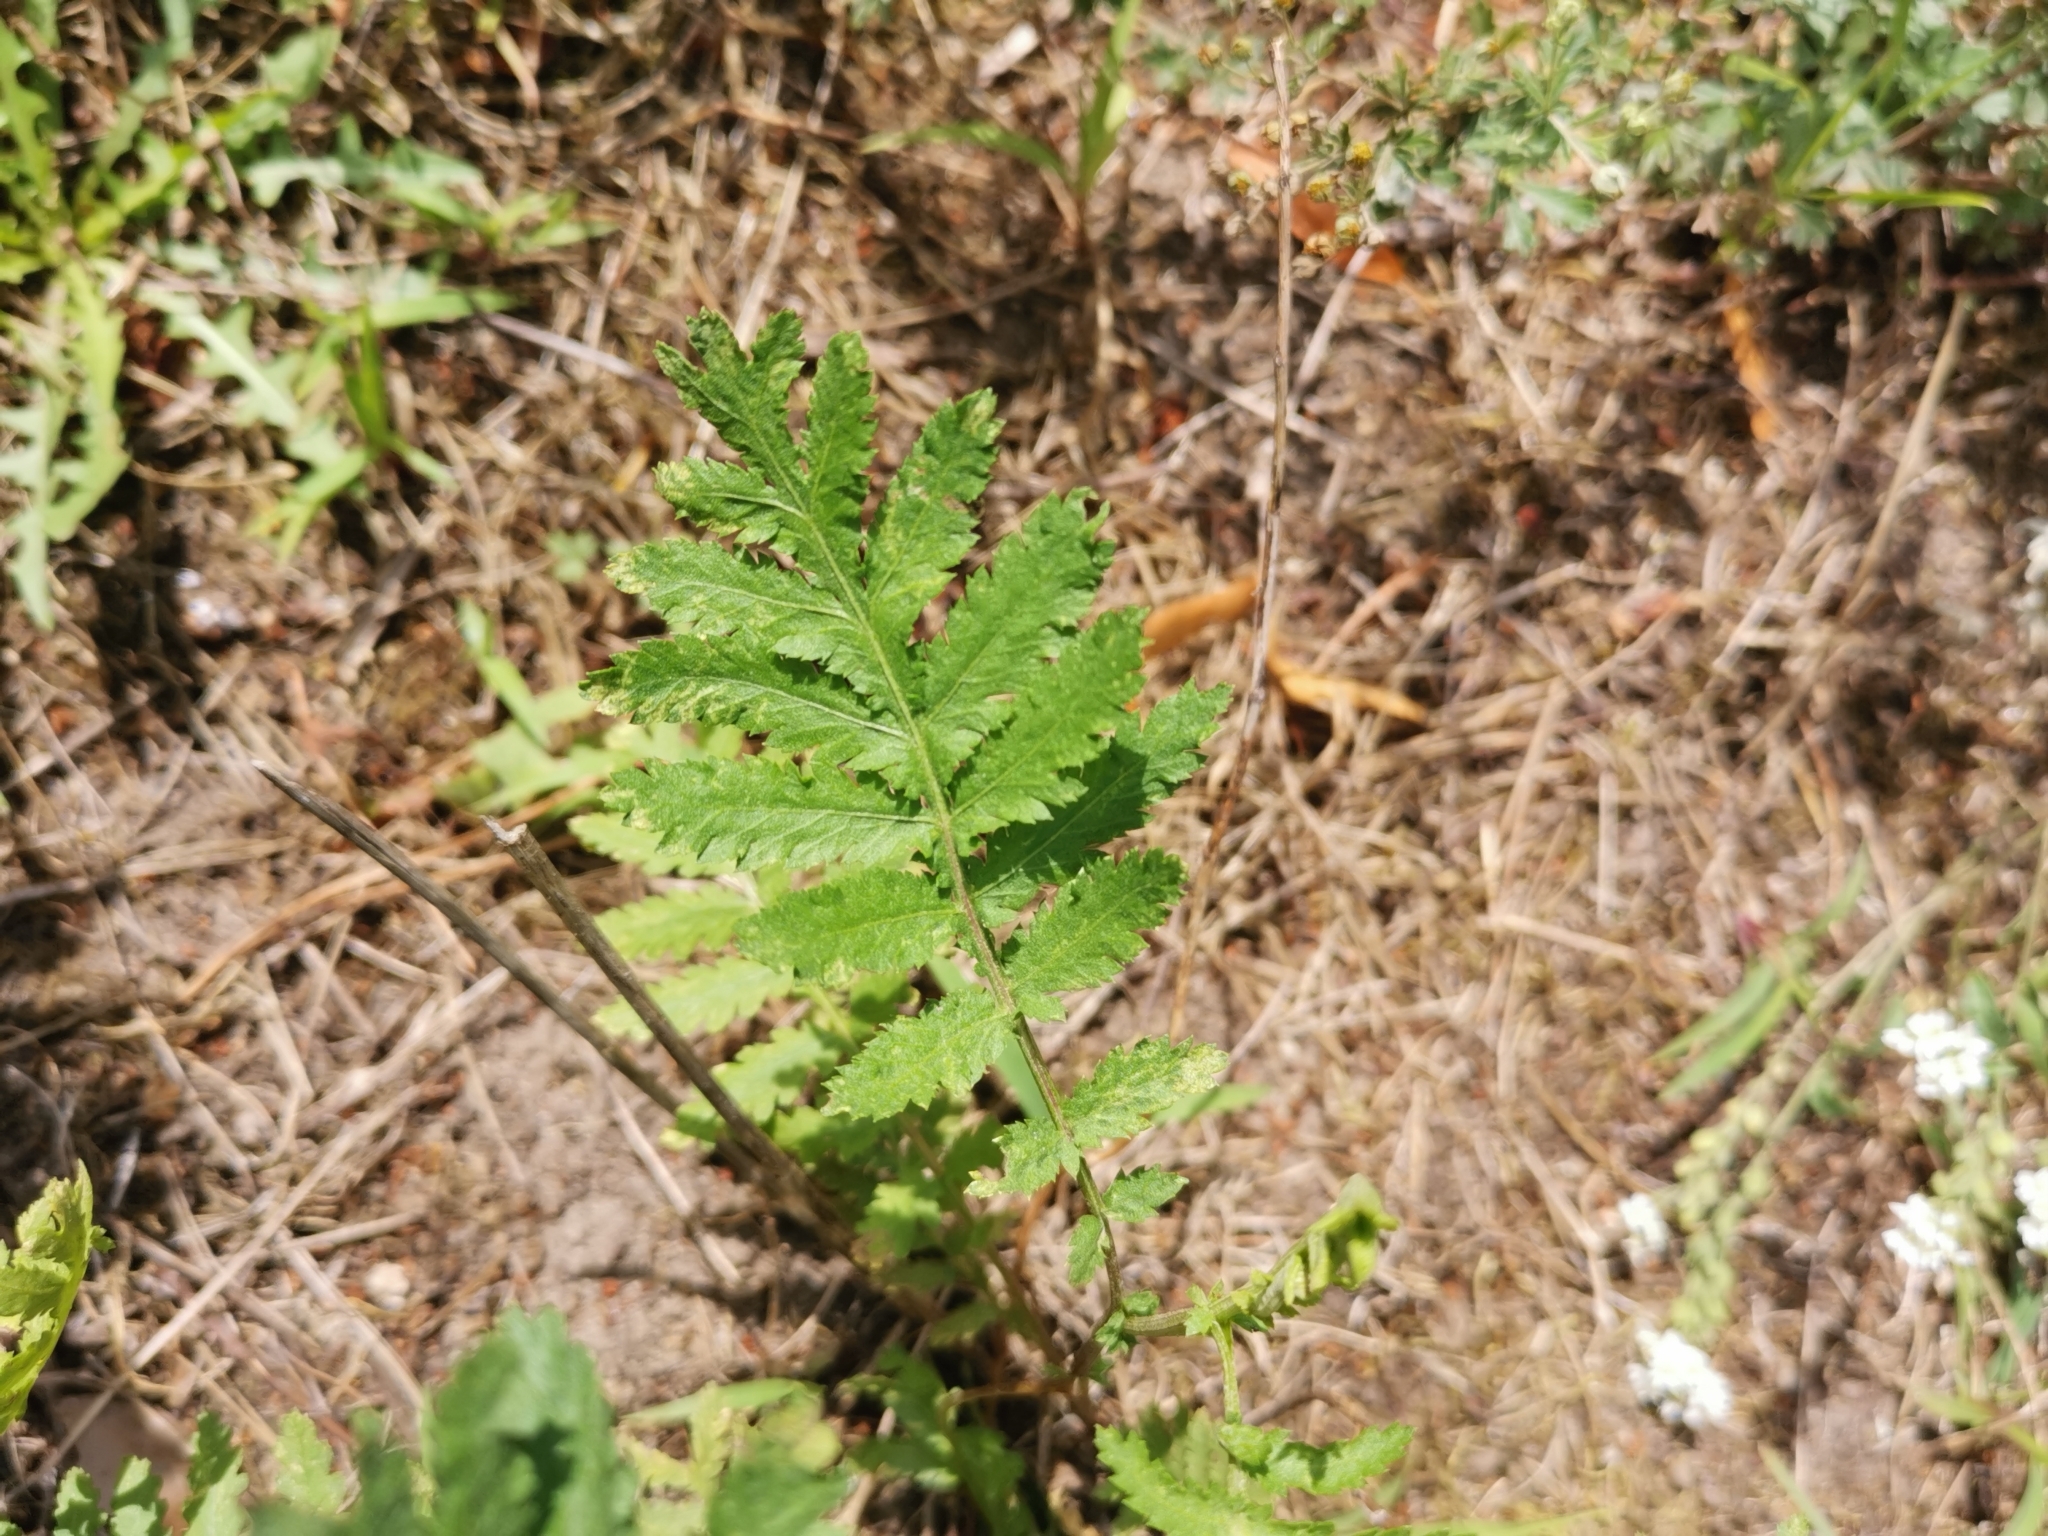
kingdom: Plantae
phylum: Tracheophyta
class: Magnoliopsida
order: Asterales
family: Asteraceae
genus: Tanacetum
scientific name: Tanacetum vulgare
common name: Common tansy
